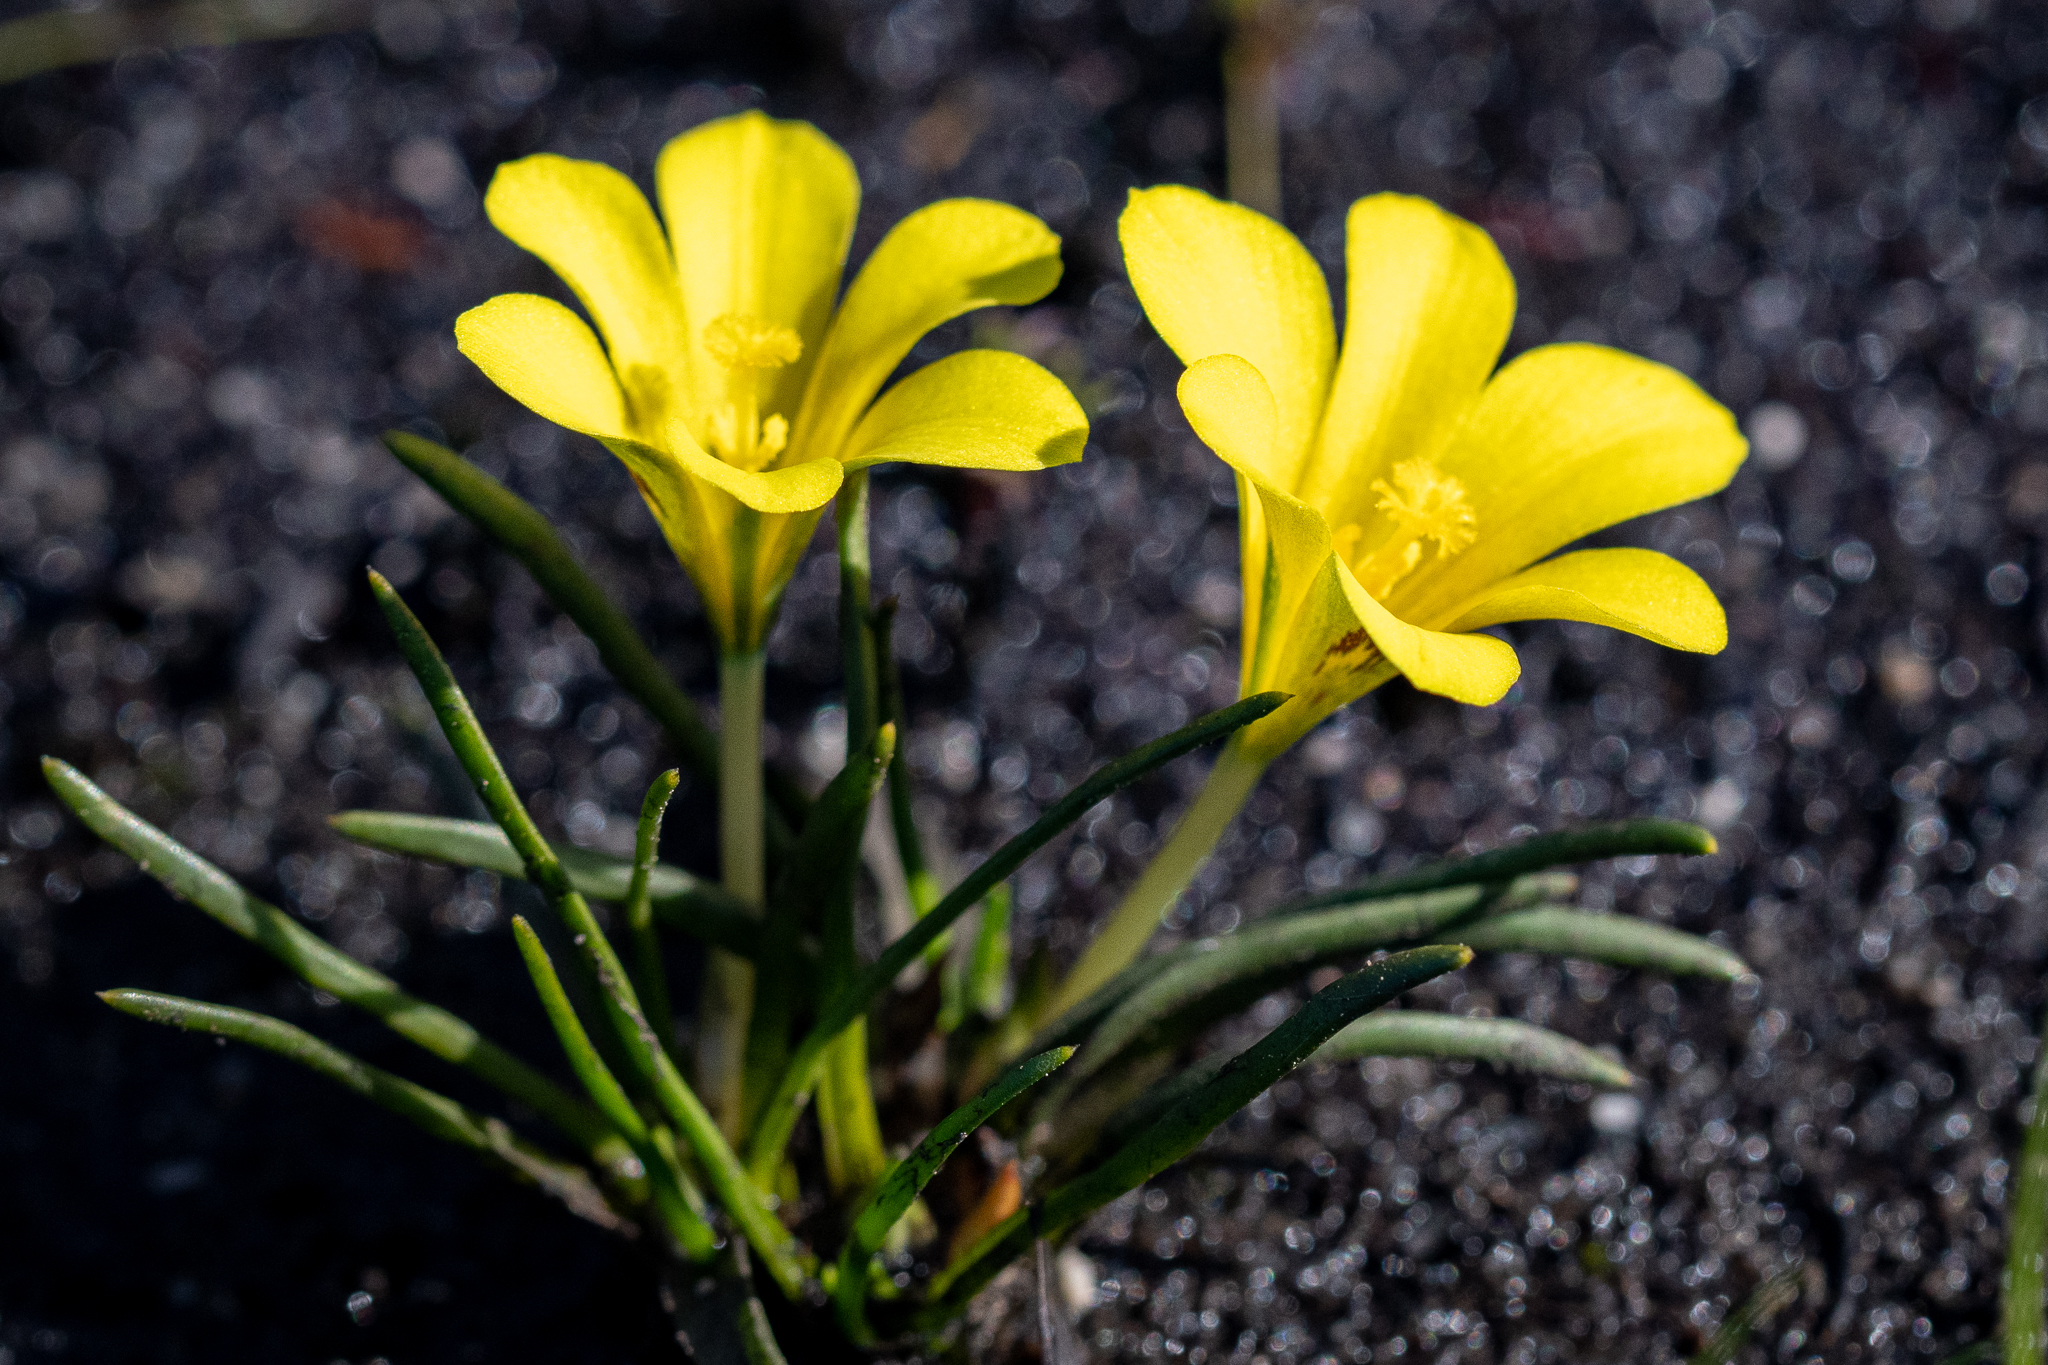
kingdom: Plantae
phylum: Tracheophyta
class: Liliopsida
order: Asparagales
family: Iridaceae
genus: Moraea
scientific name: Moraea fugacissima
